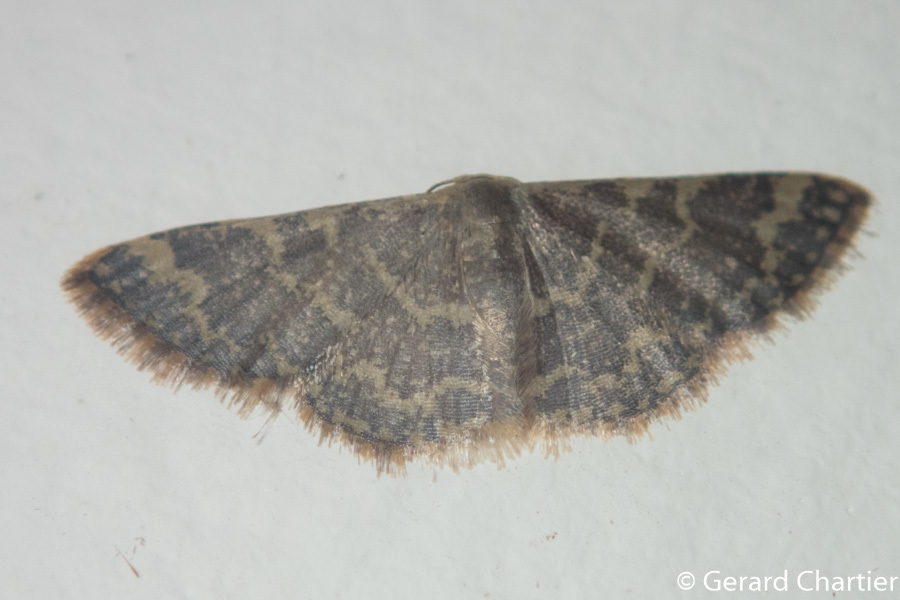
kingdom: Animalia
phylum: Arthropoda
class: Insecta
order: Lepidoptera
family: Geometridae
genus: Idaea
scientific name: Idaea costiguttata
